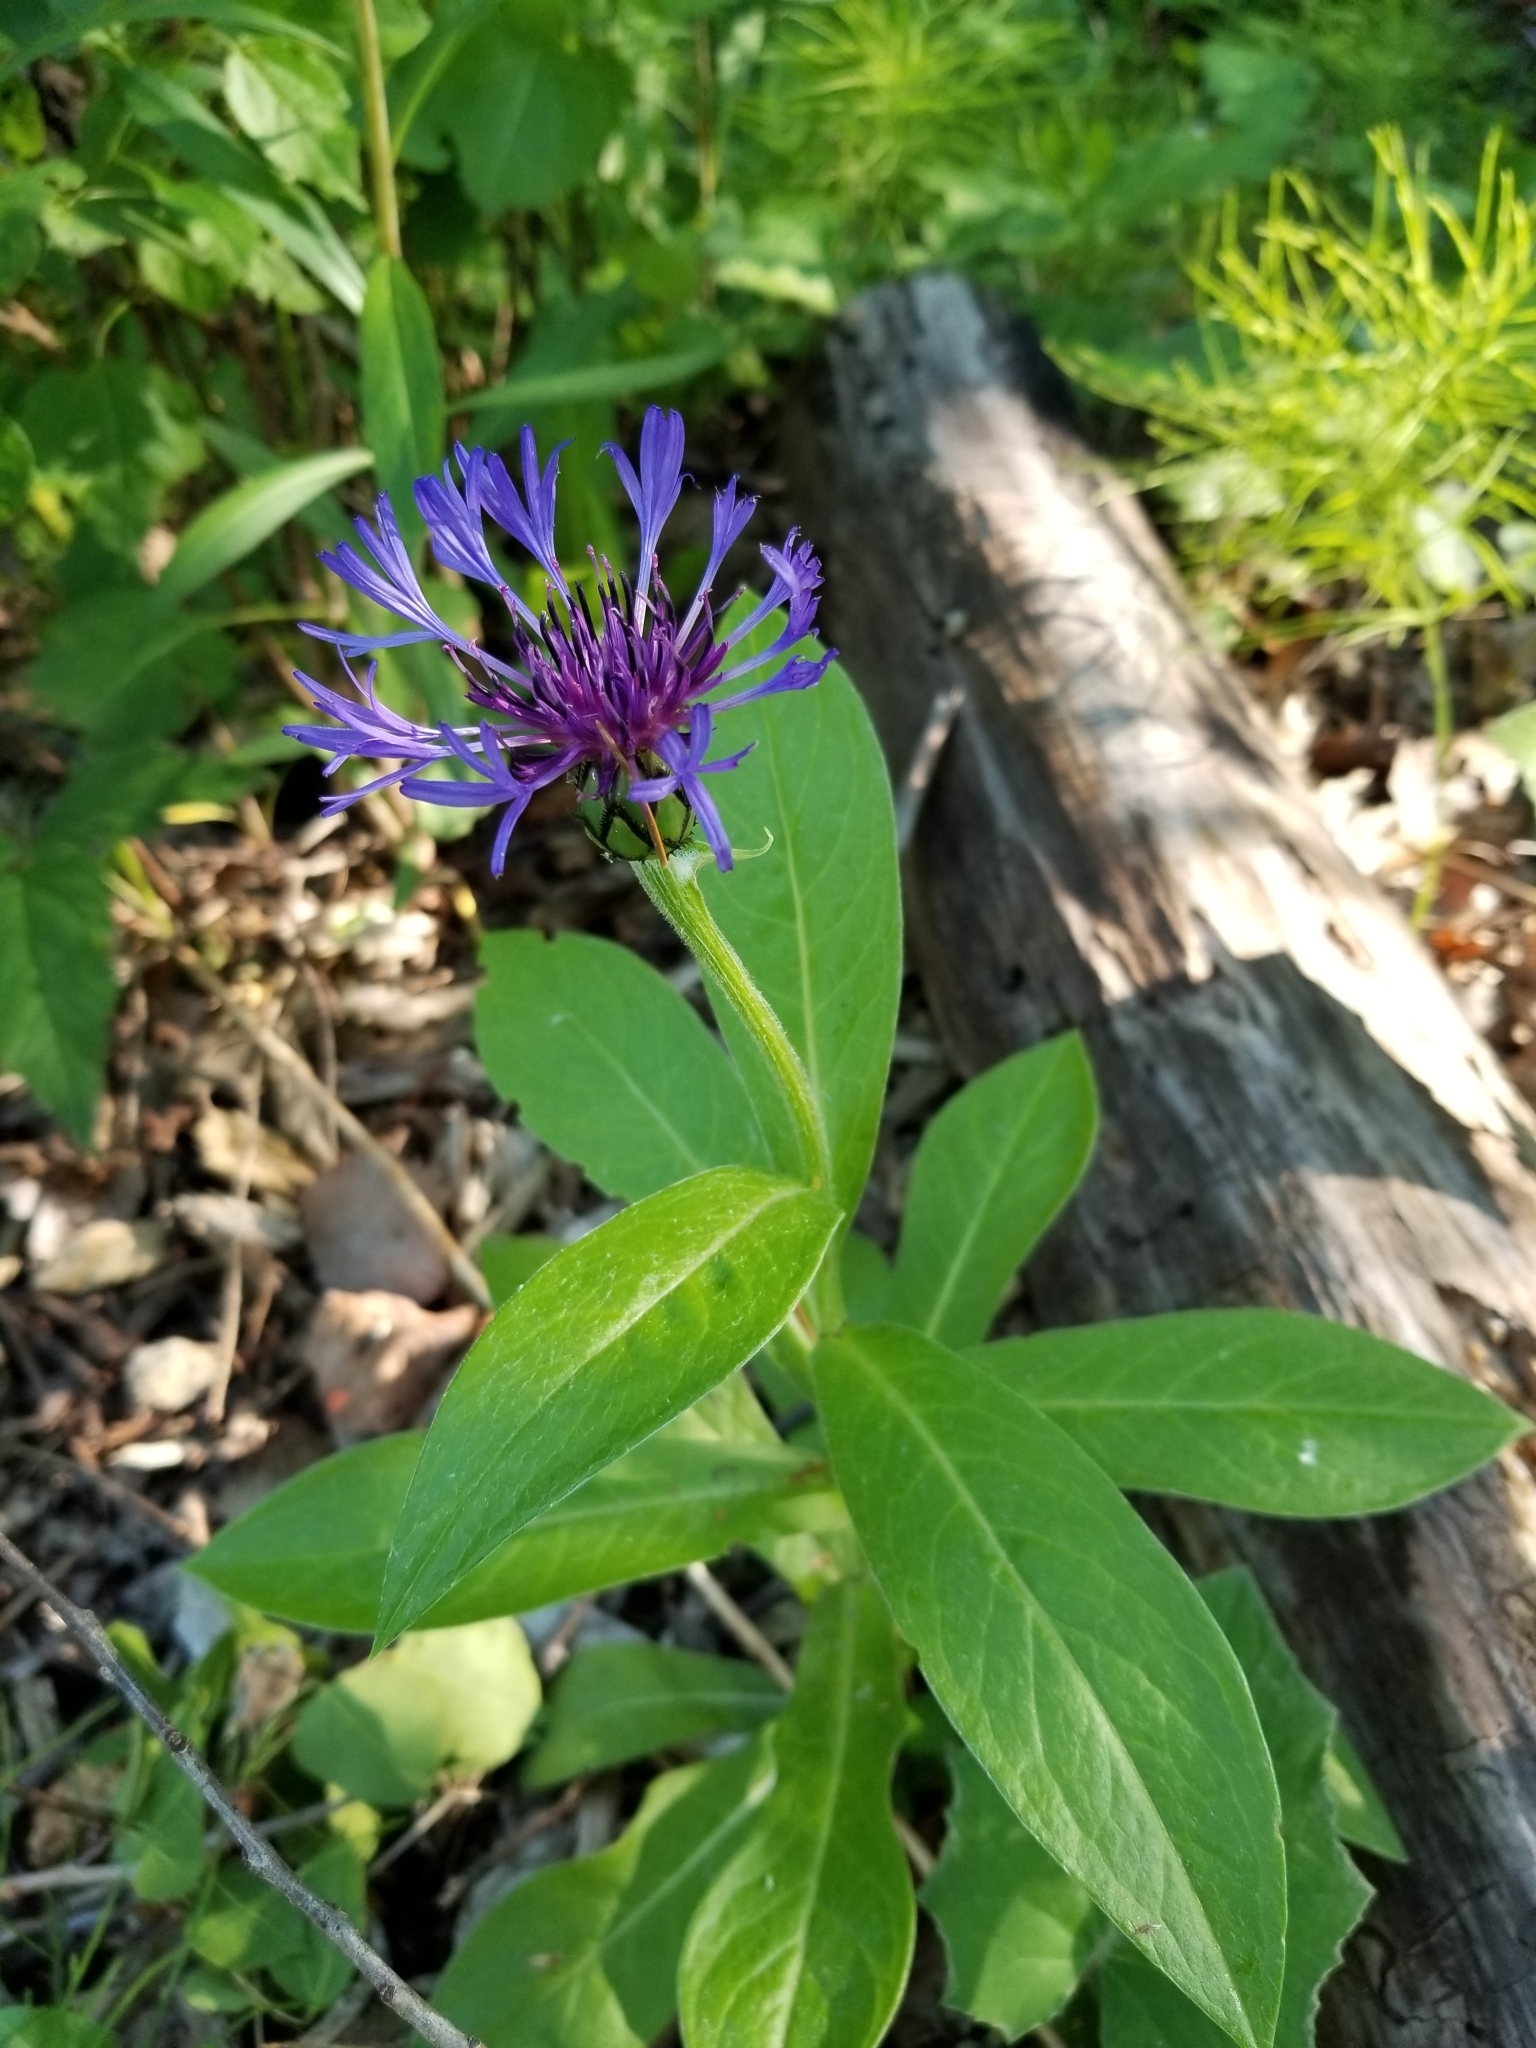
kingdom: Plantae
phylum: Tracheophyta
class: Magnoliopsida
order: Asterales
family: Asteraceae
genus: Centaurea
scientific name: Centaurea montana
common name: Perennial cornflower
